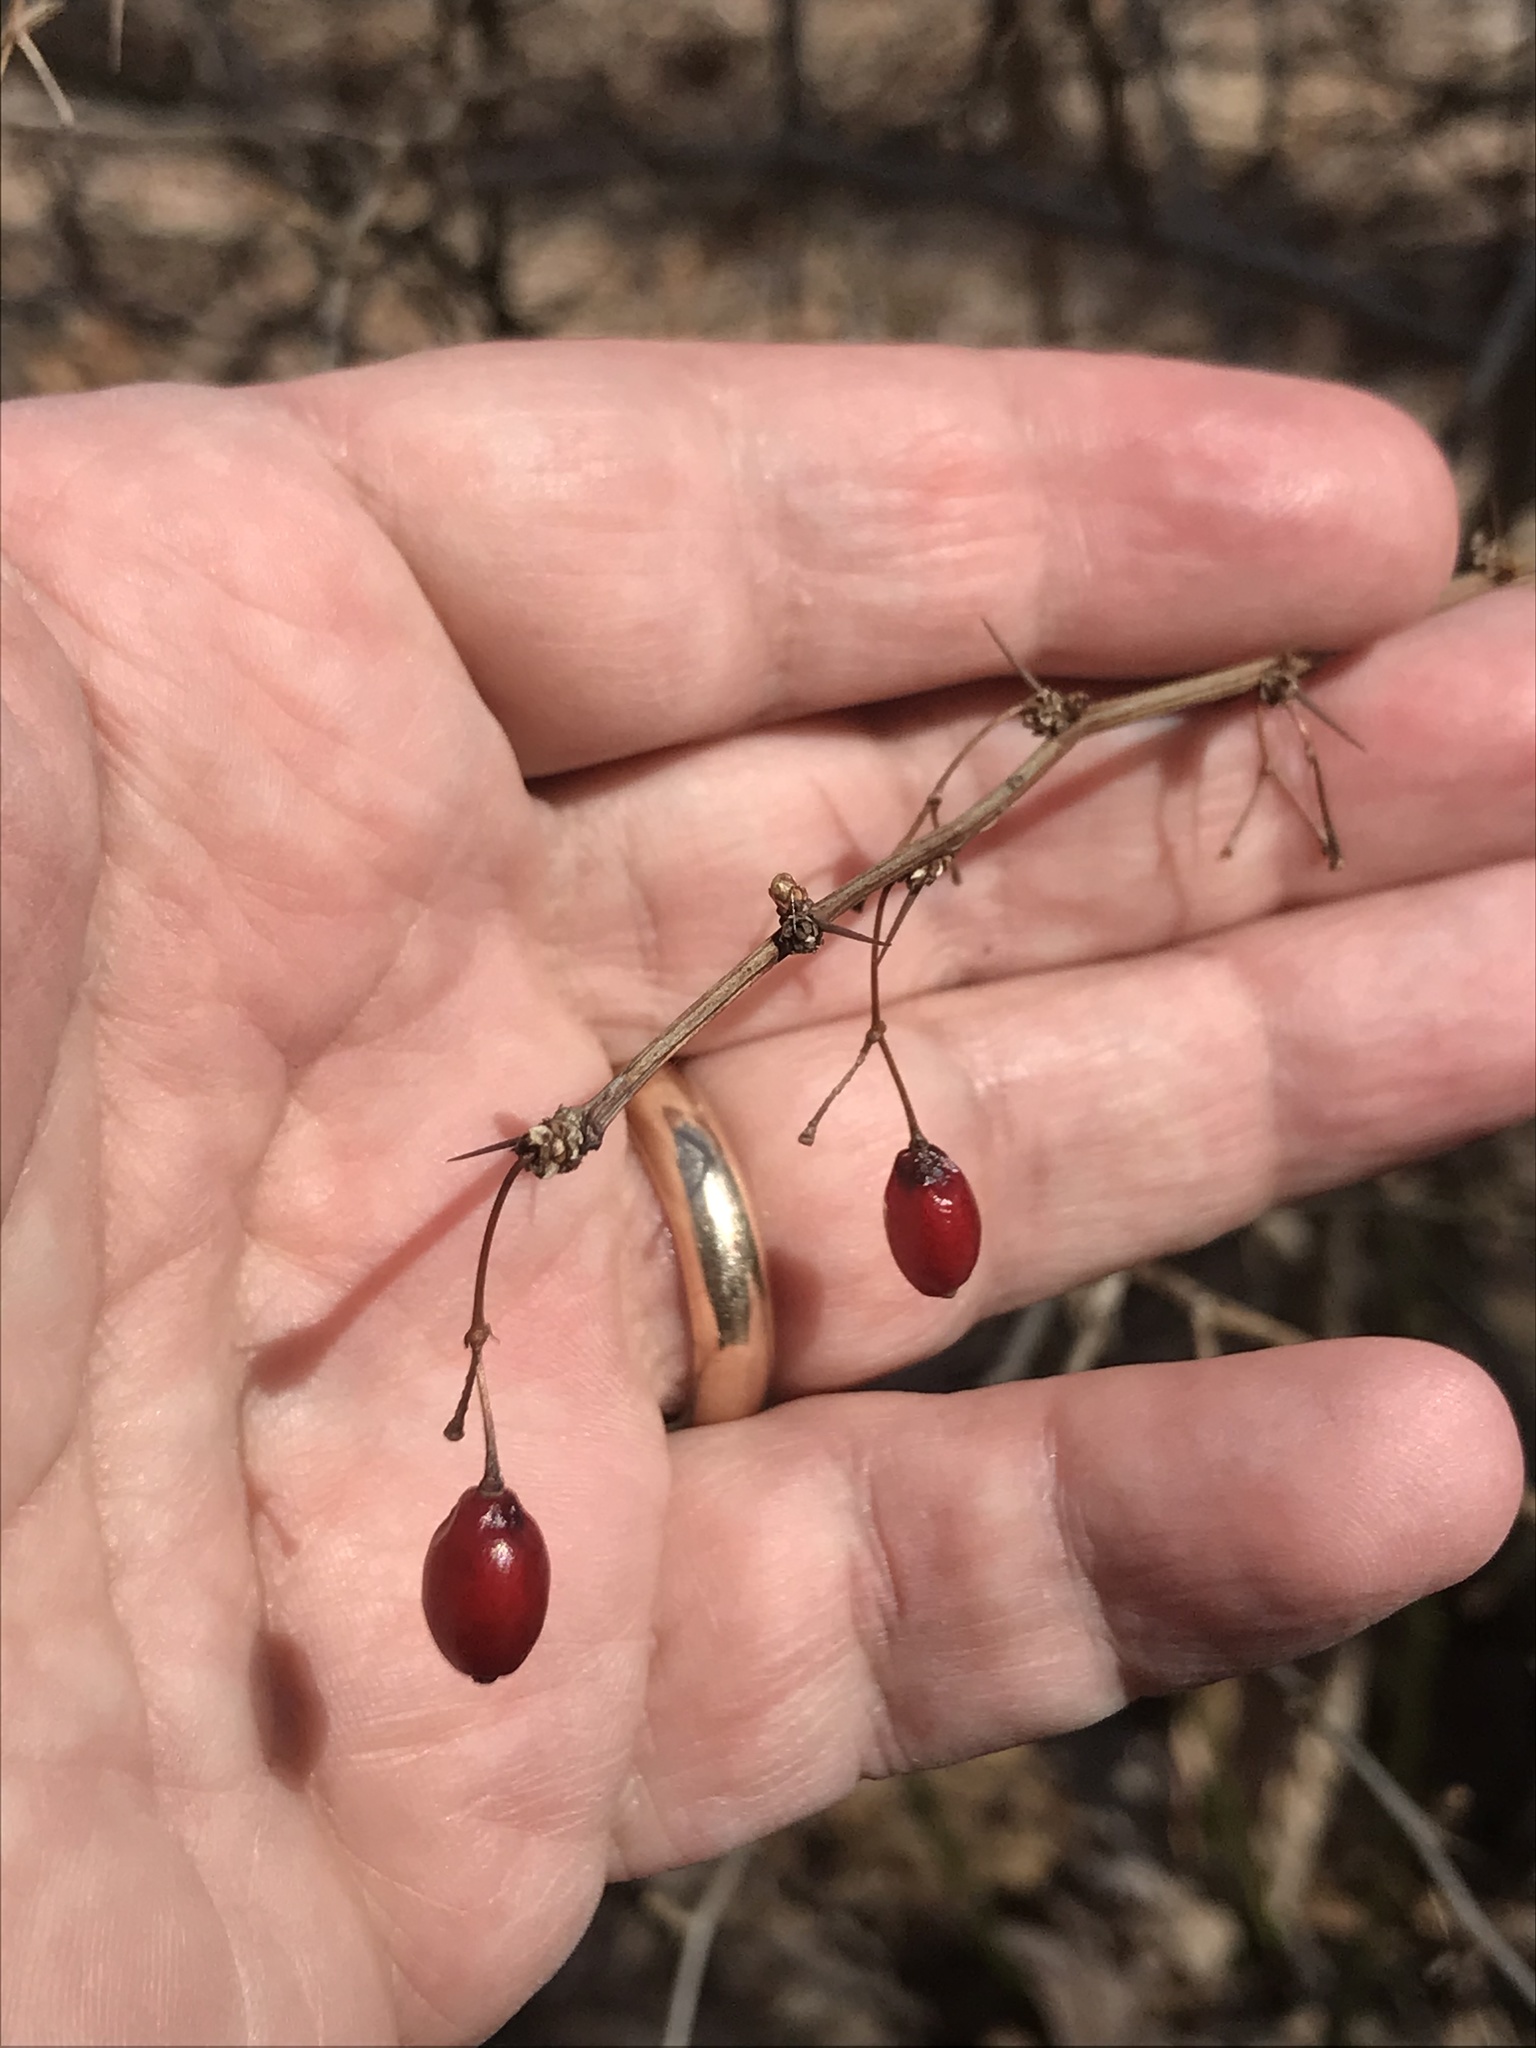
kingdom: Plantae
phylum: Tracheophyta
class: Magnoliopsida
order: Ranunculales
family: Berberidaceae
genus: Berberis
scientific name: Berberis thunbergii
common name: Japanese barberry
